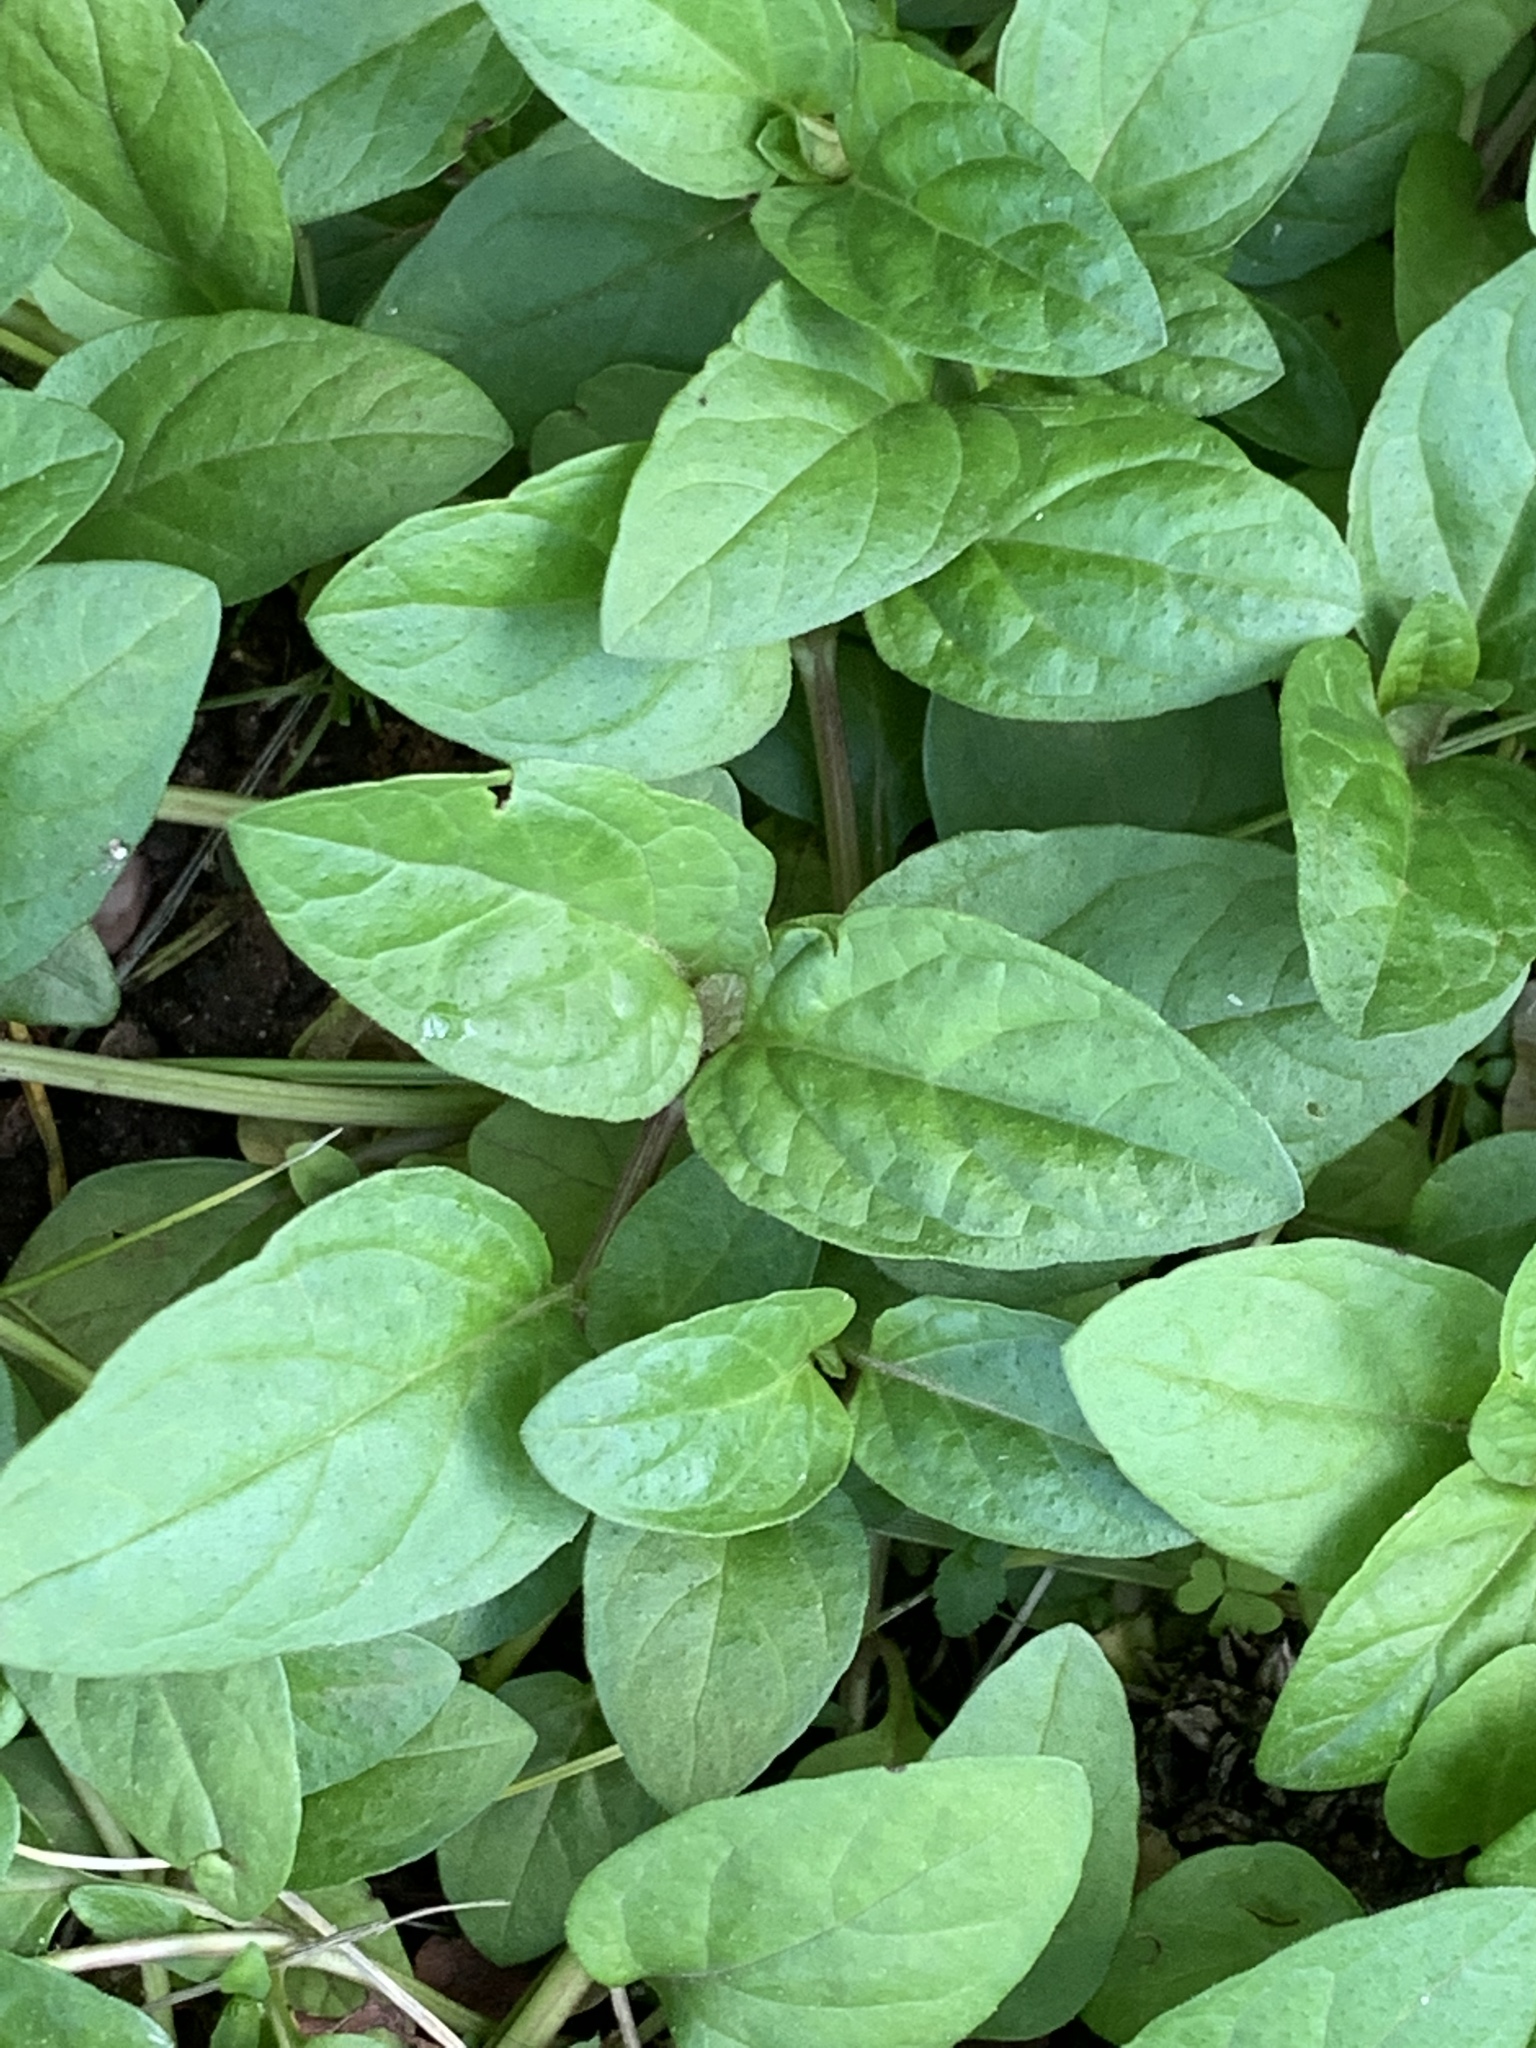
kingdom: Plantae
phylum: Tracheophyta
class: Magnoliopsida
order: Lamiales
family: Lamiaceae
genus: Prunella
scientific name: Prunella vulgaris
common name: Heal-all
